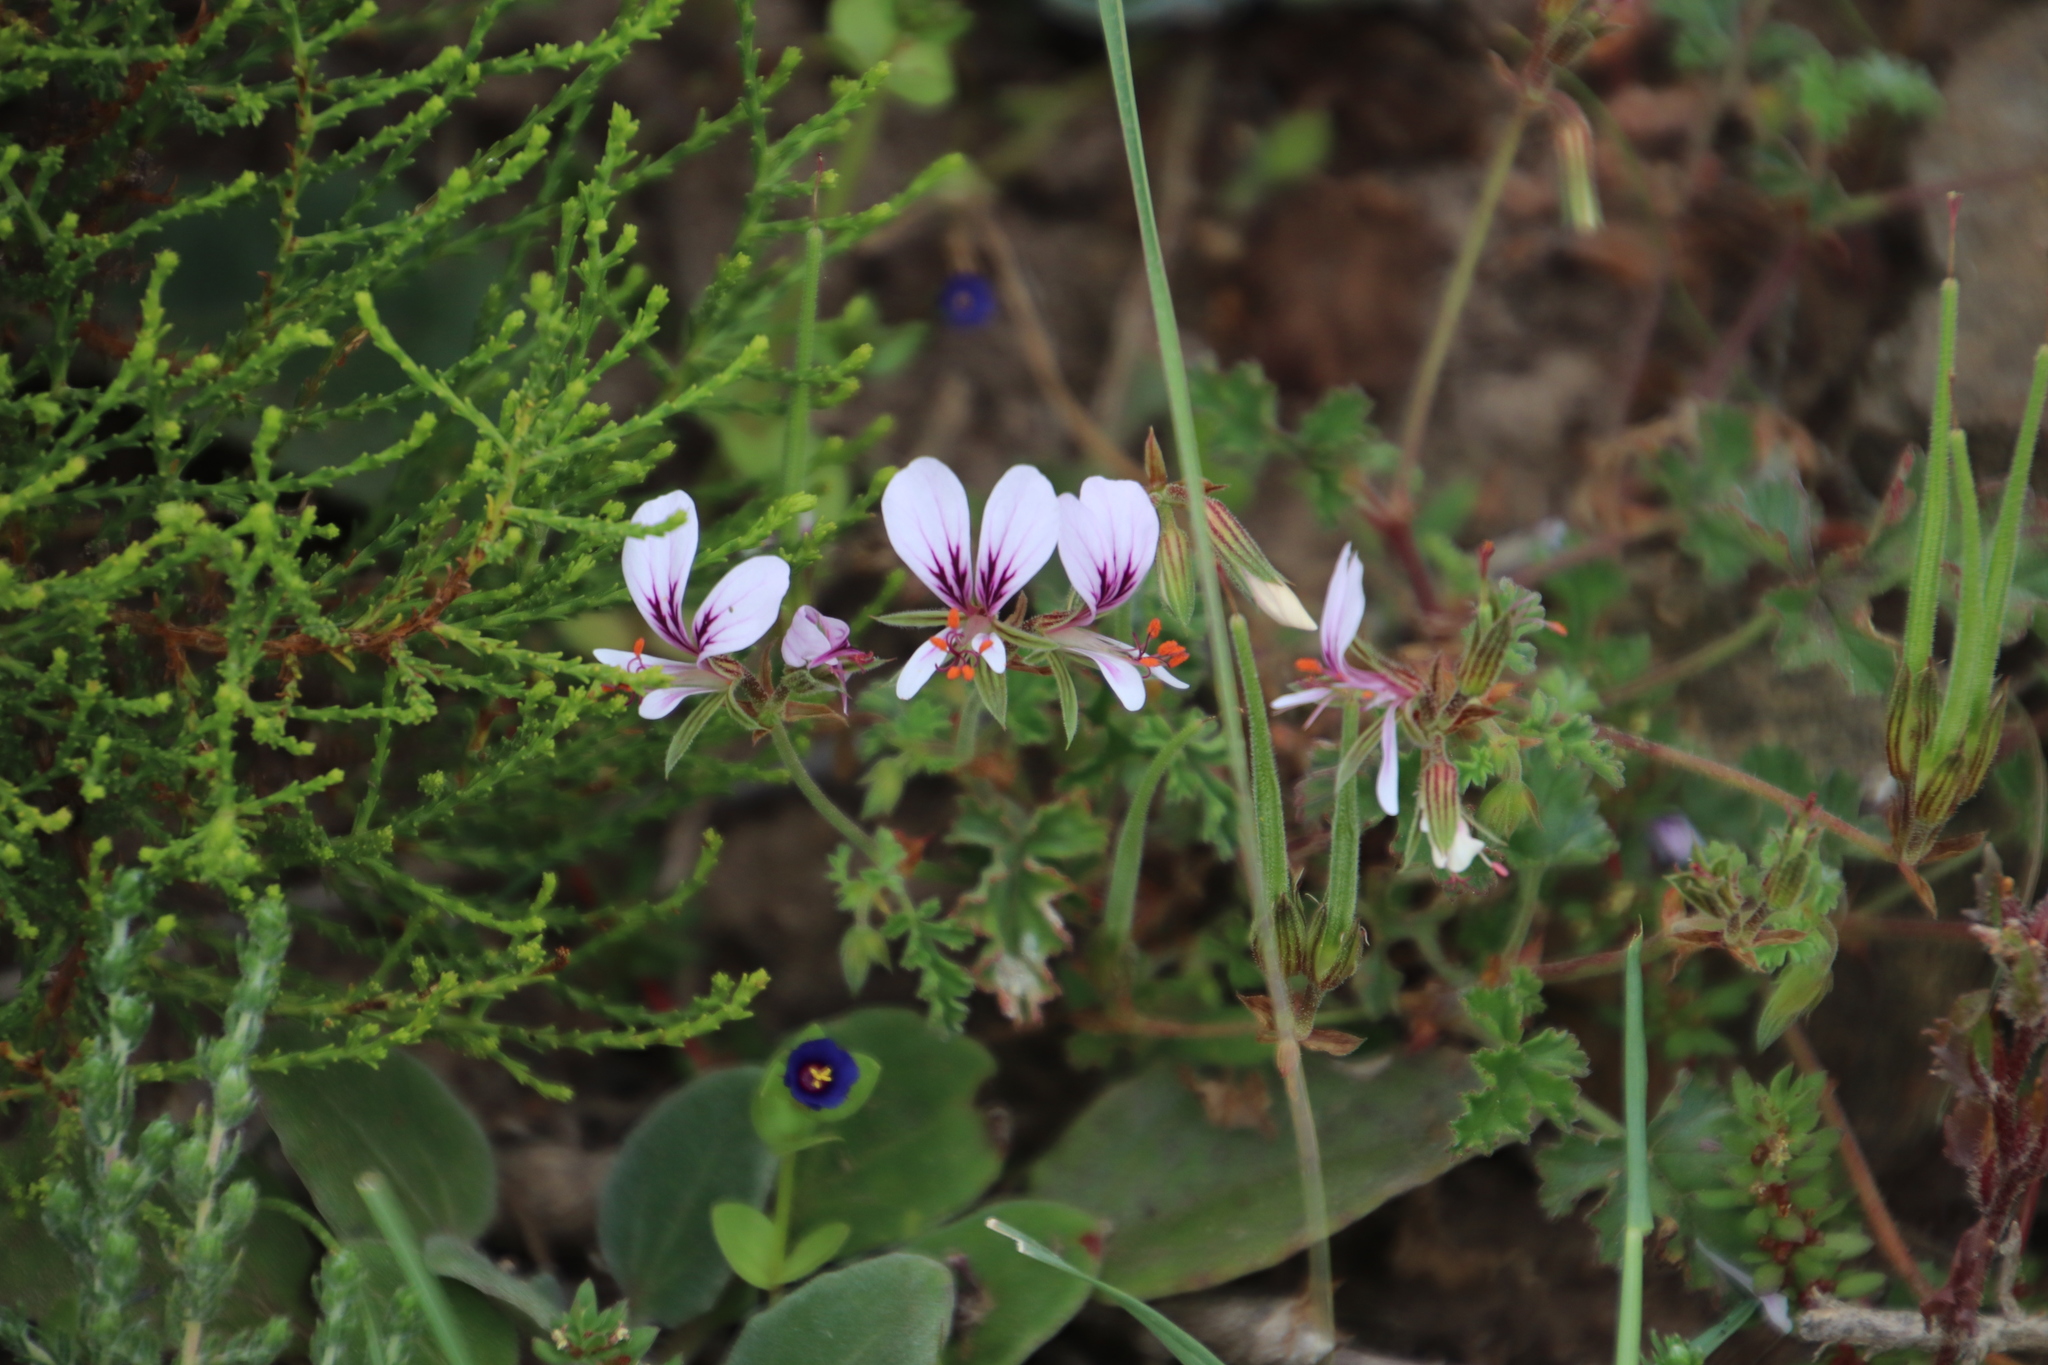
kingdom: Plantae
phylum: Tracheophyta
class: Magnoliopsida
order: Geraniales
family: Geraniaceae
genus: Pelargonium
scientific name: Pelargonium candicans
